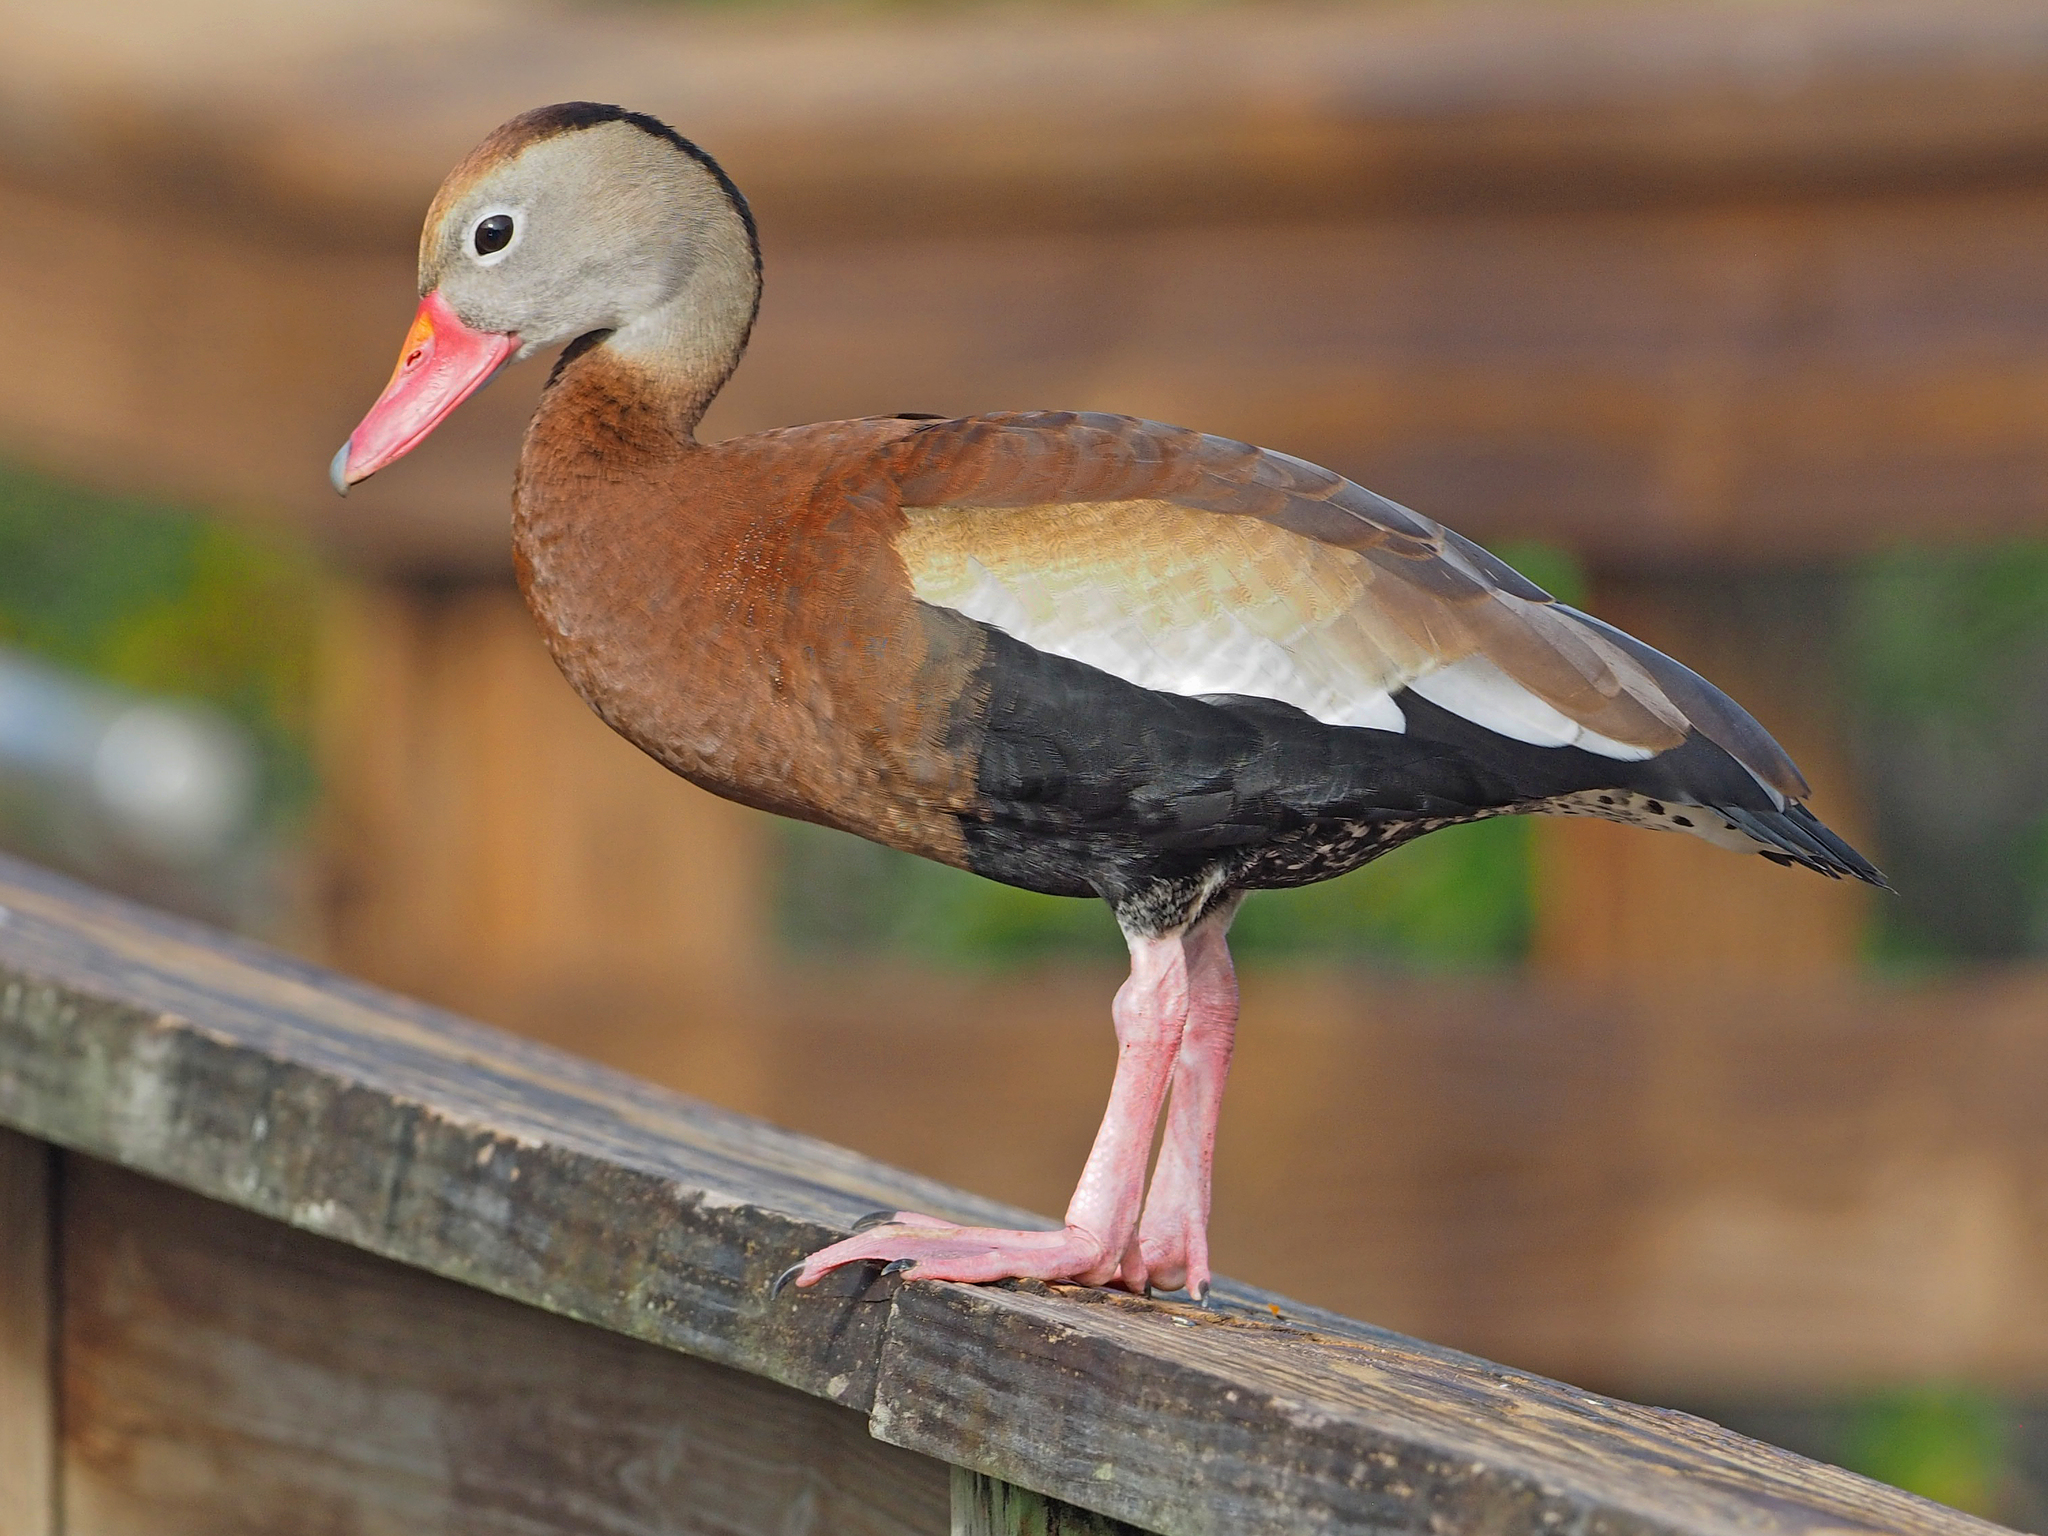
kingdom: Animalia
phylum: Chordata
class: Aves
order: Anseriformes
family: Anatidae
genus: Dendrocygna
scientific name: Dendrocygna autumnalis
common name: Black-bellied whistling duck
